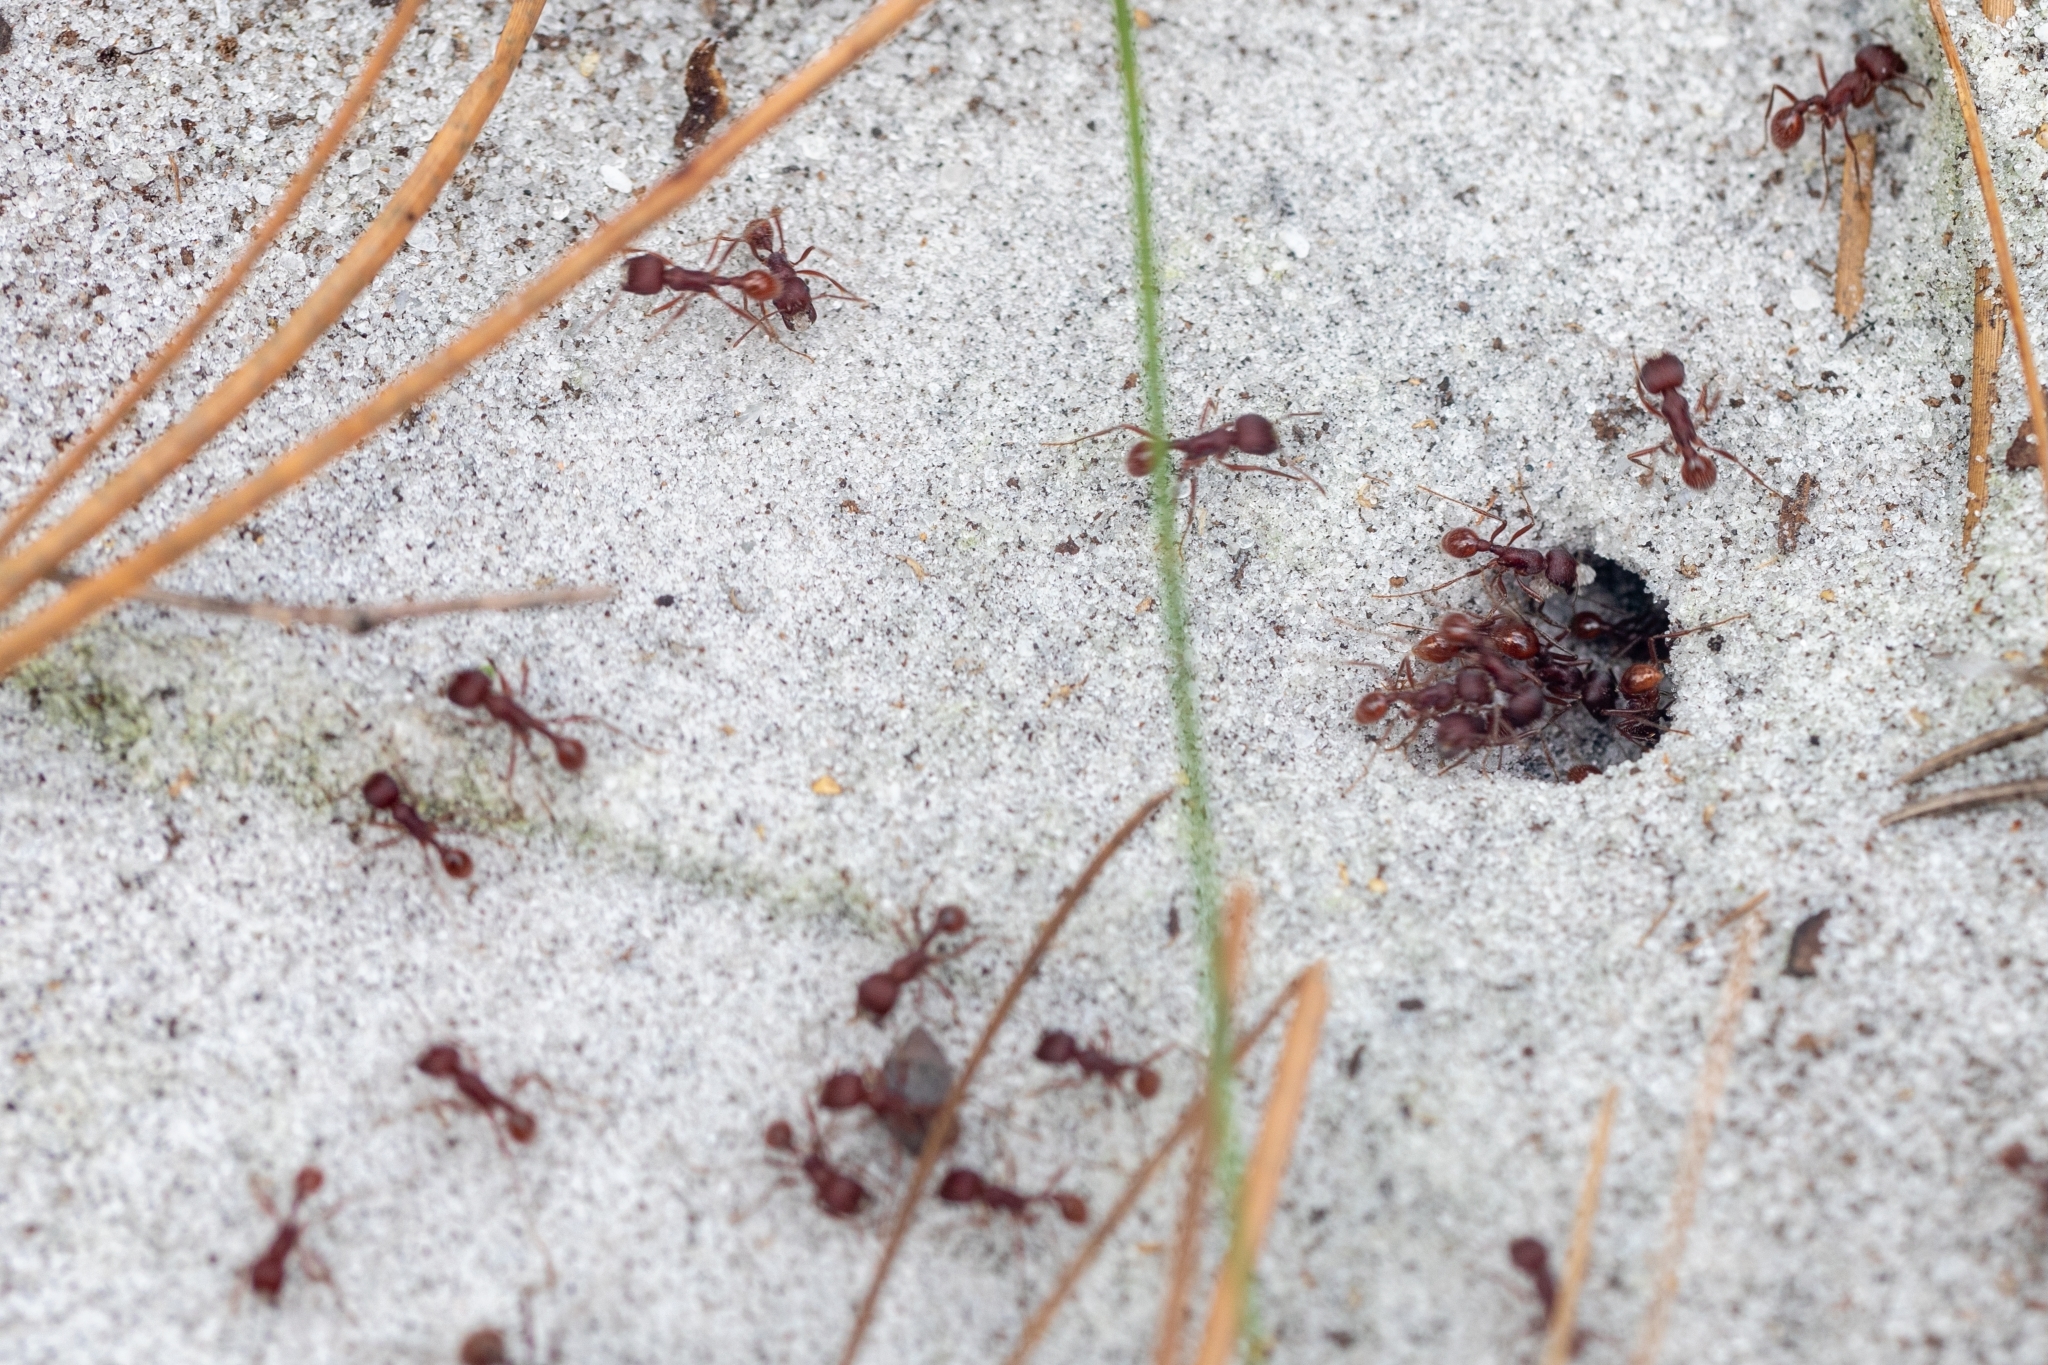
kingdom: Animalia
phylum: Arthropoda
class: Insecta
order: Hymenoptera
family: Formicidae
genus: Pogonomyrmex
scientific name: Pogonomyrmex badius
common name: Florida harvester ant
